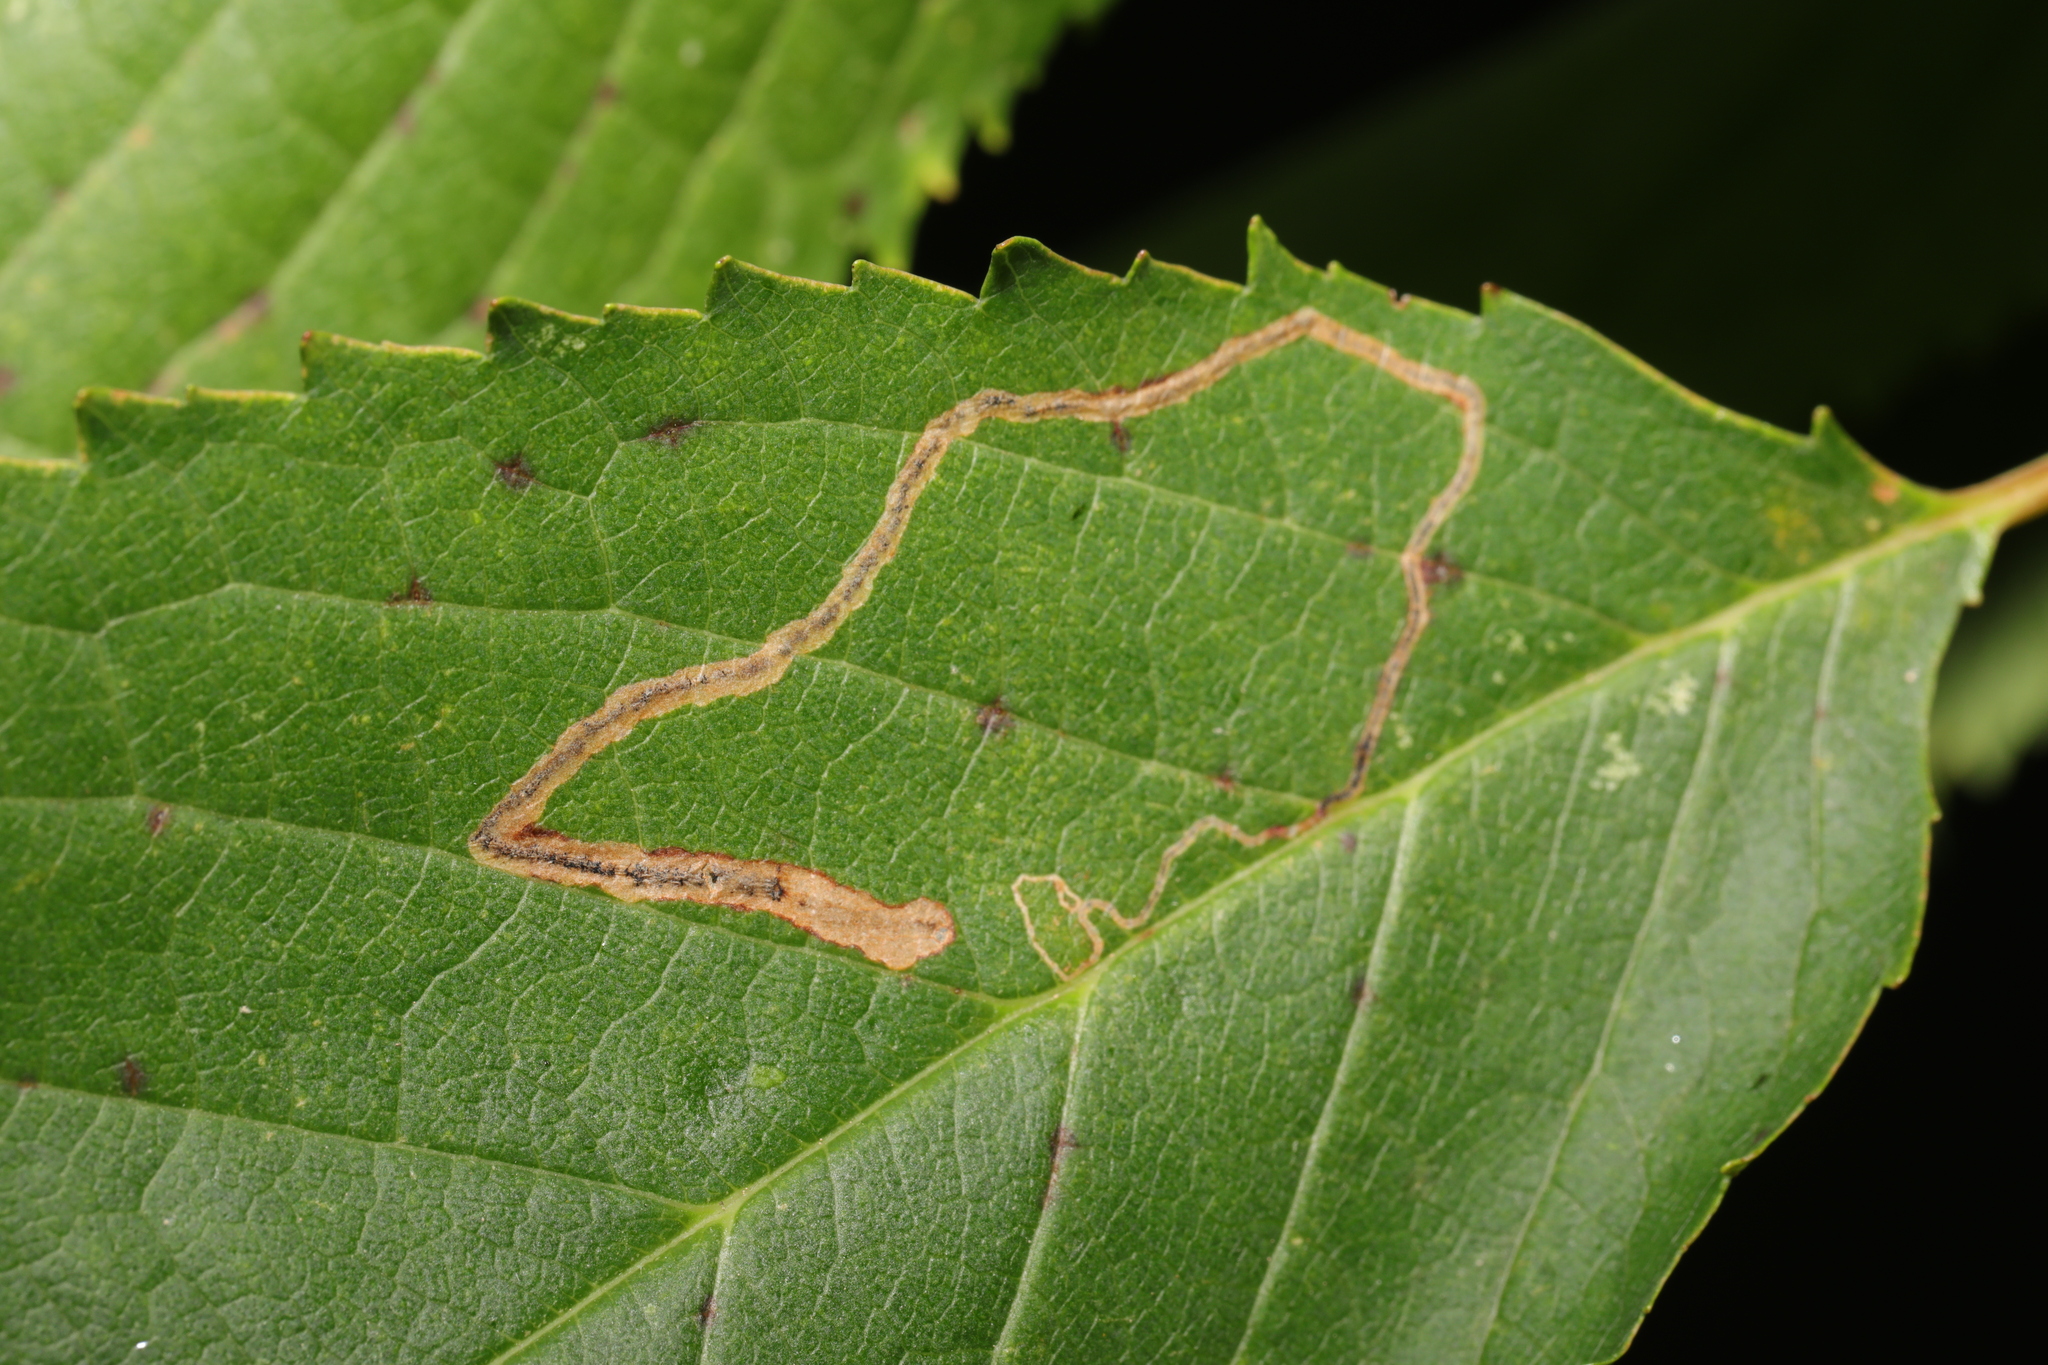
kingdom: Animalia
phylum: Arthropoda
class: Insecta
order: Lepidoptera
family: Lyonetiidae
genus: Lyonetia
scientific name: Lyonetia clerkella
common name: Apple leaf miner
